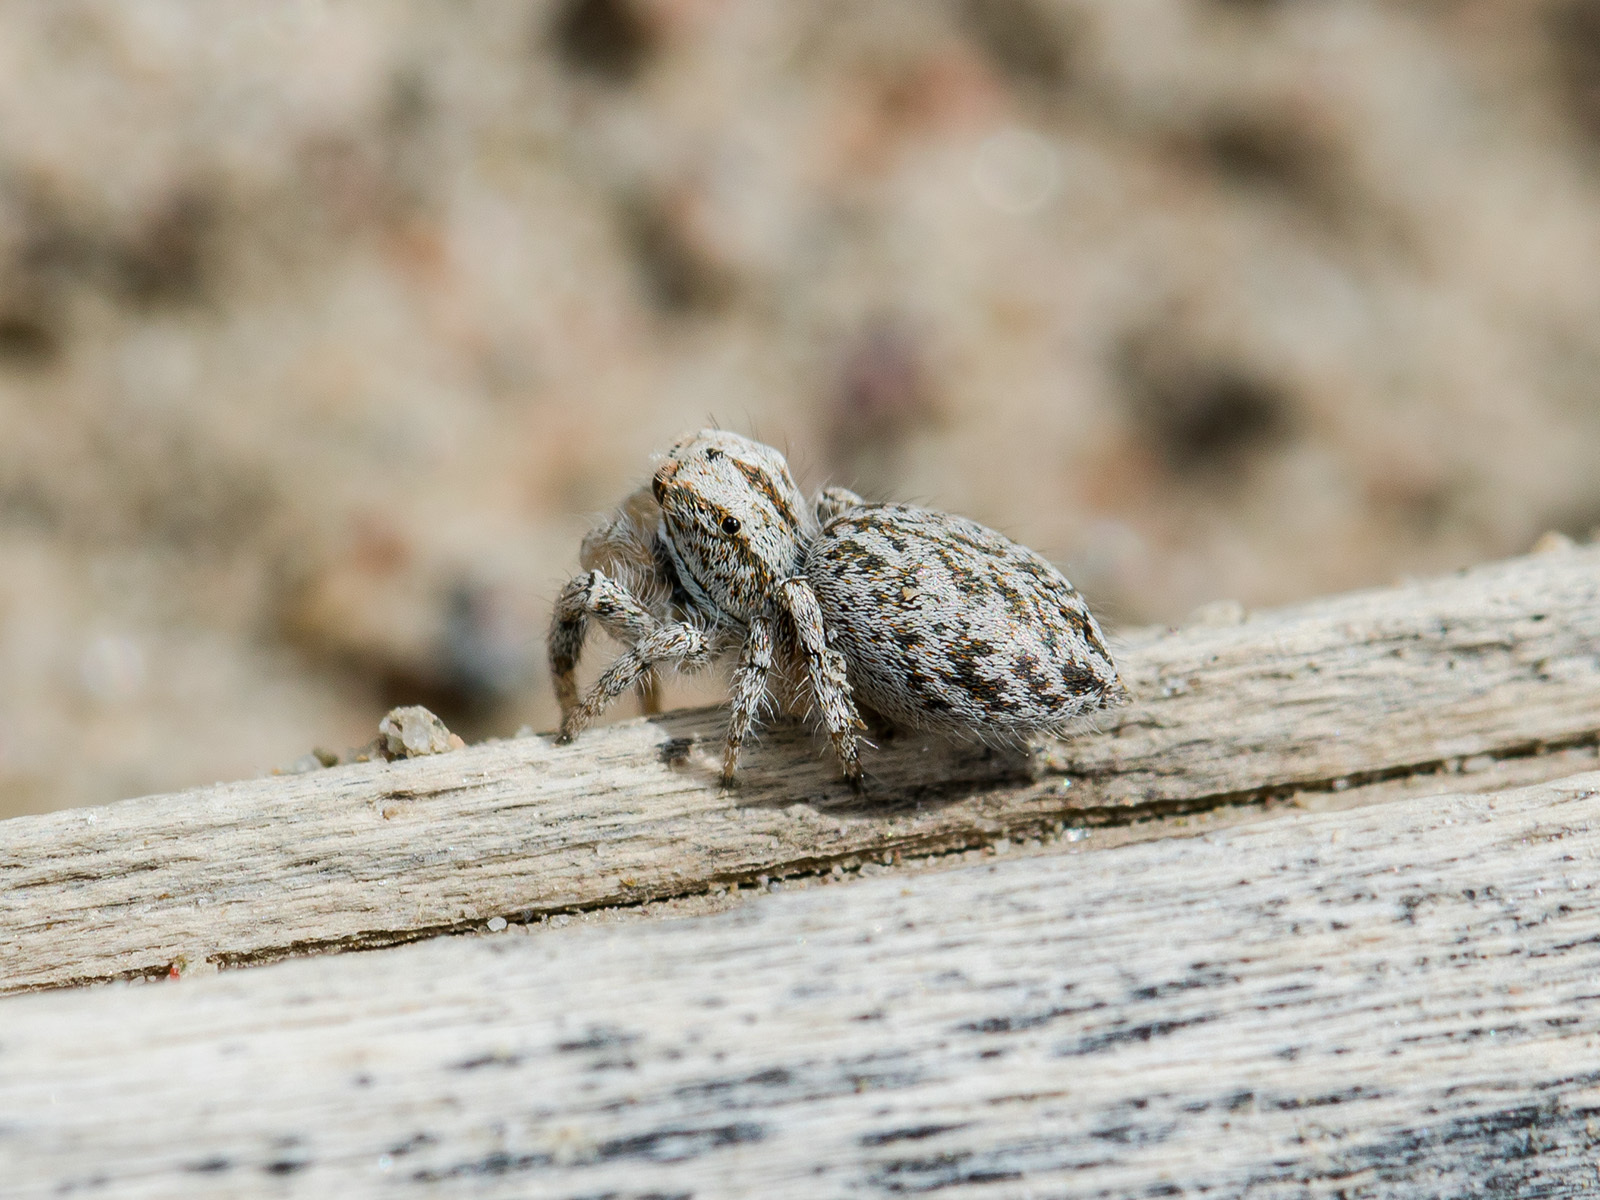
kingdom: Animalia
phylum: Arthropoda
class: Arachnida
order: Araneae
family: Salticidae
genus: Marusyllus
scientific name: Marusyllus aralicus
